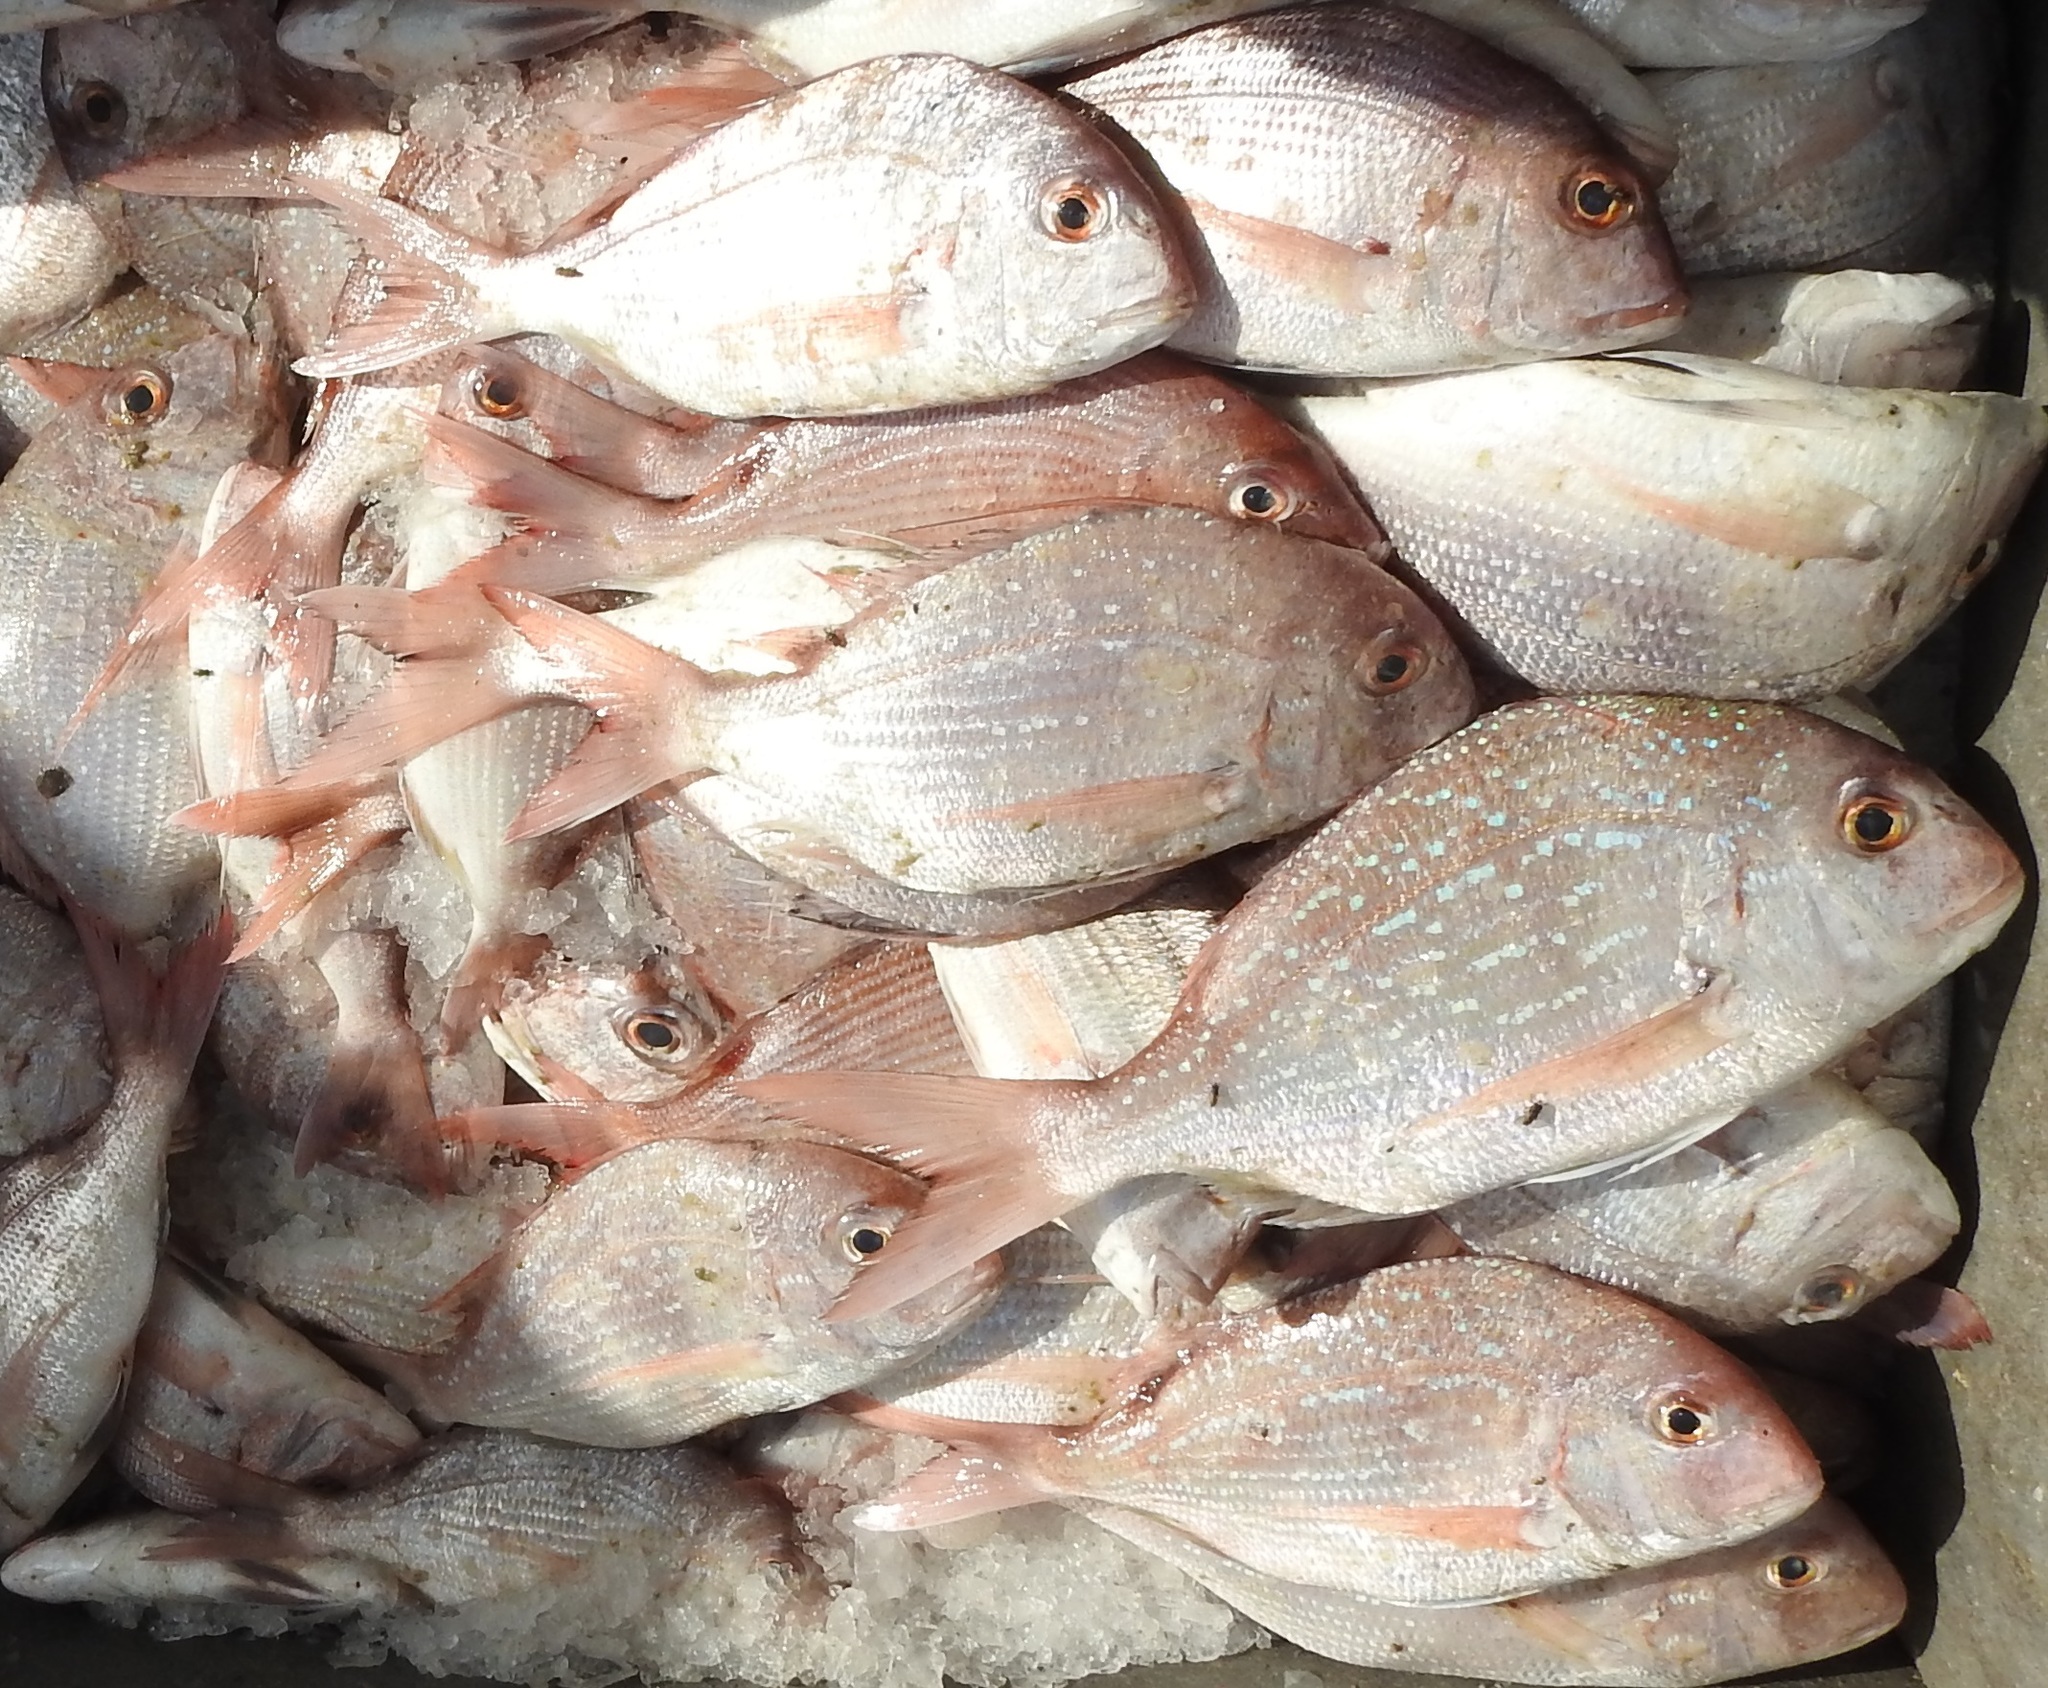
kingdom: Animalia
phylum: Chordata
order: Perciformes
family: Sparidae
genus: Pagrus
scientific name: Pagrus caeruleostictus
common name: Bluespotted seabream
